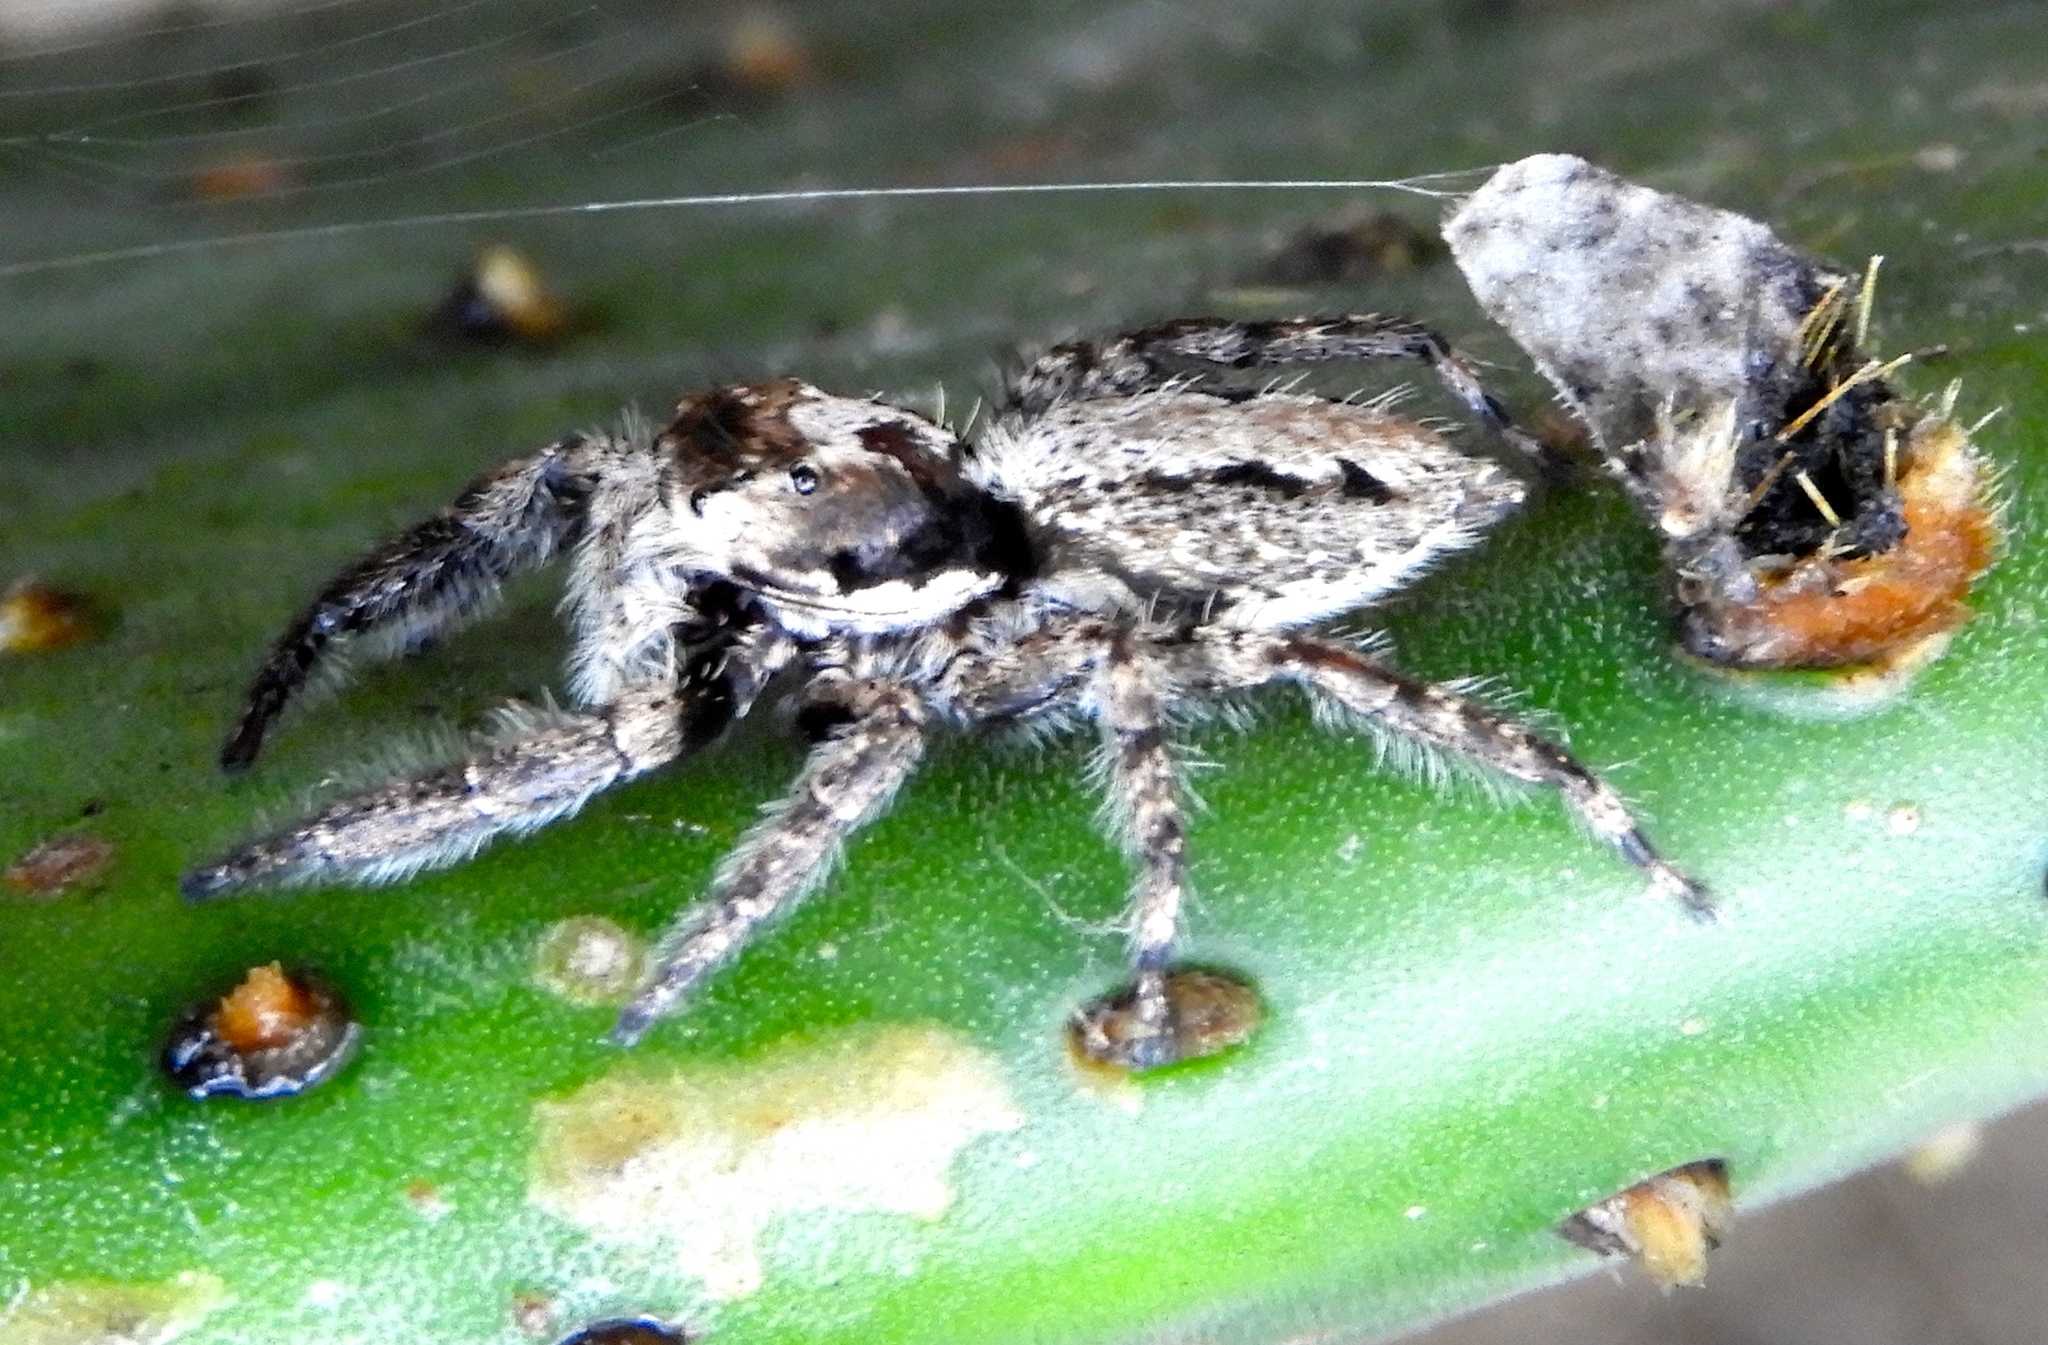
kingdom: Animalia
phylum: Arthropoda
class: Arachnida
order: Araneae
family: Salticidae
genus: Balmaceda
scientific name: Balmaceda
